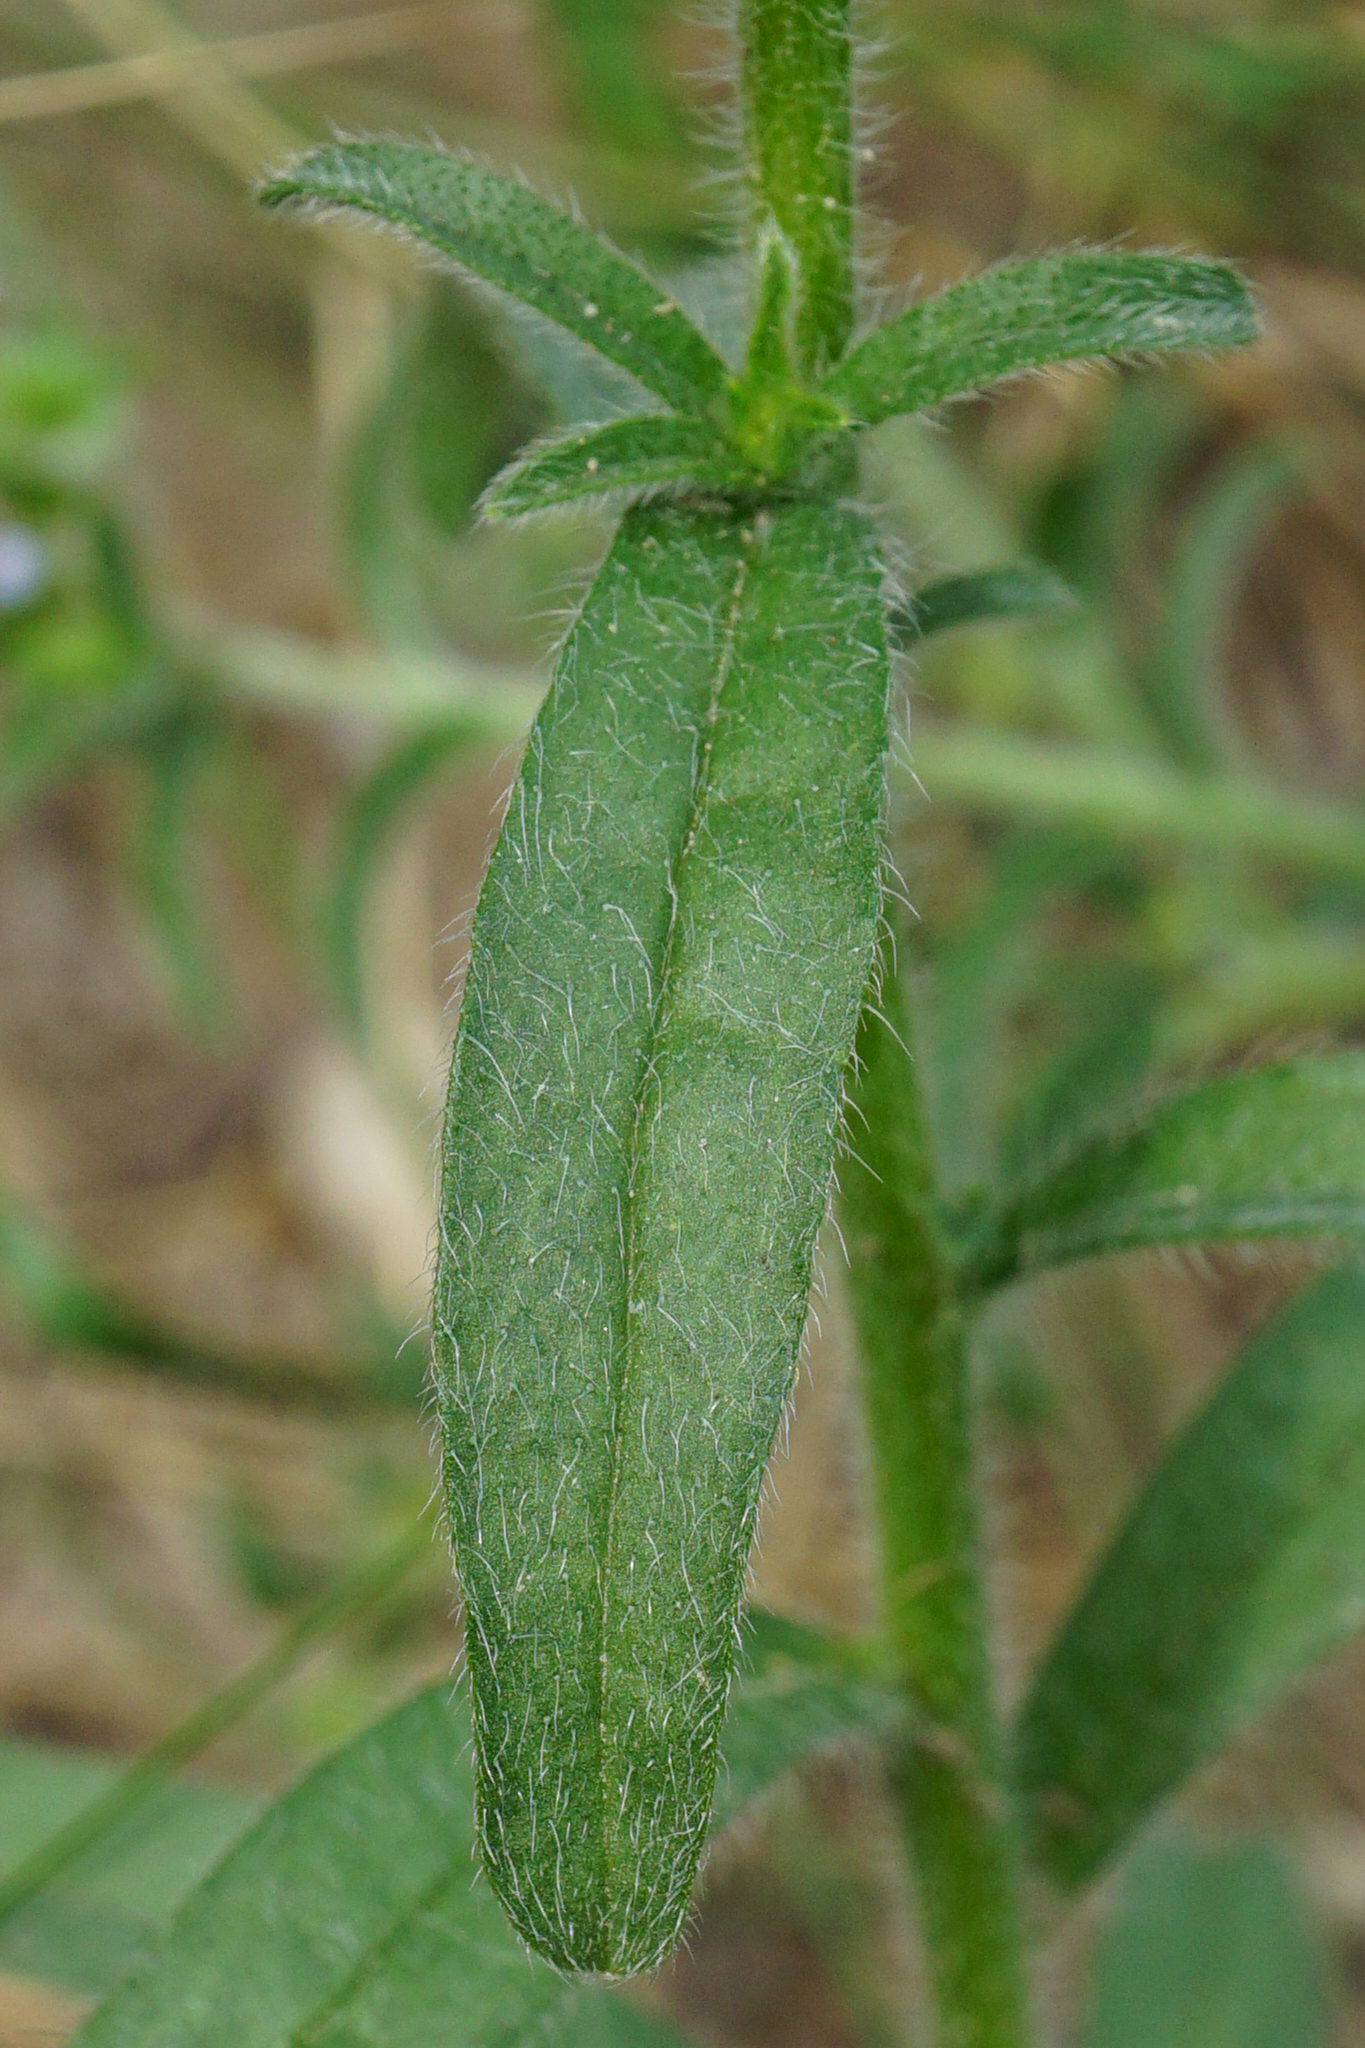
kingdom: Plantae
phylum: Tracheophyta
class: Magnoliopsida
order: Boraginales
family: Boraginaceae
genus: Lappula
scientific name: Lappula squarrosa
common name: European stickseed
